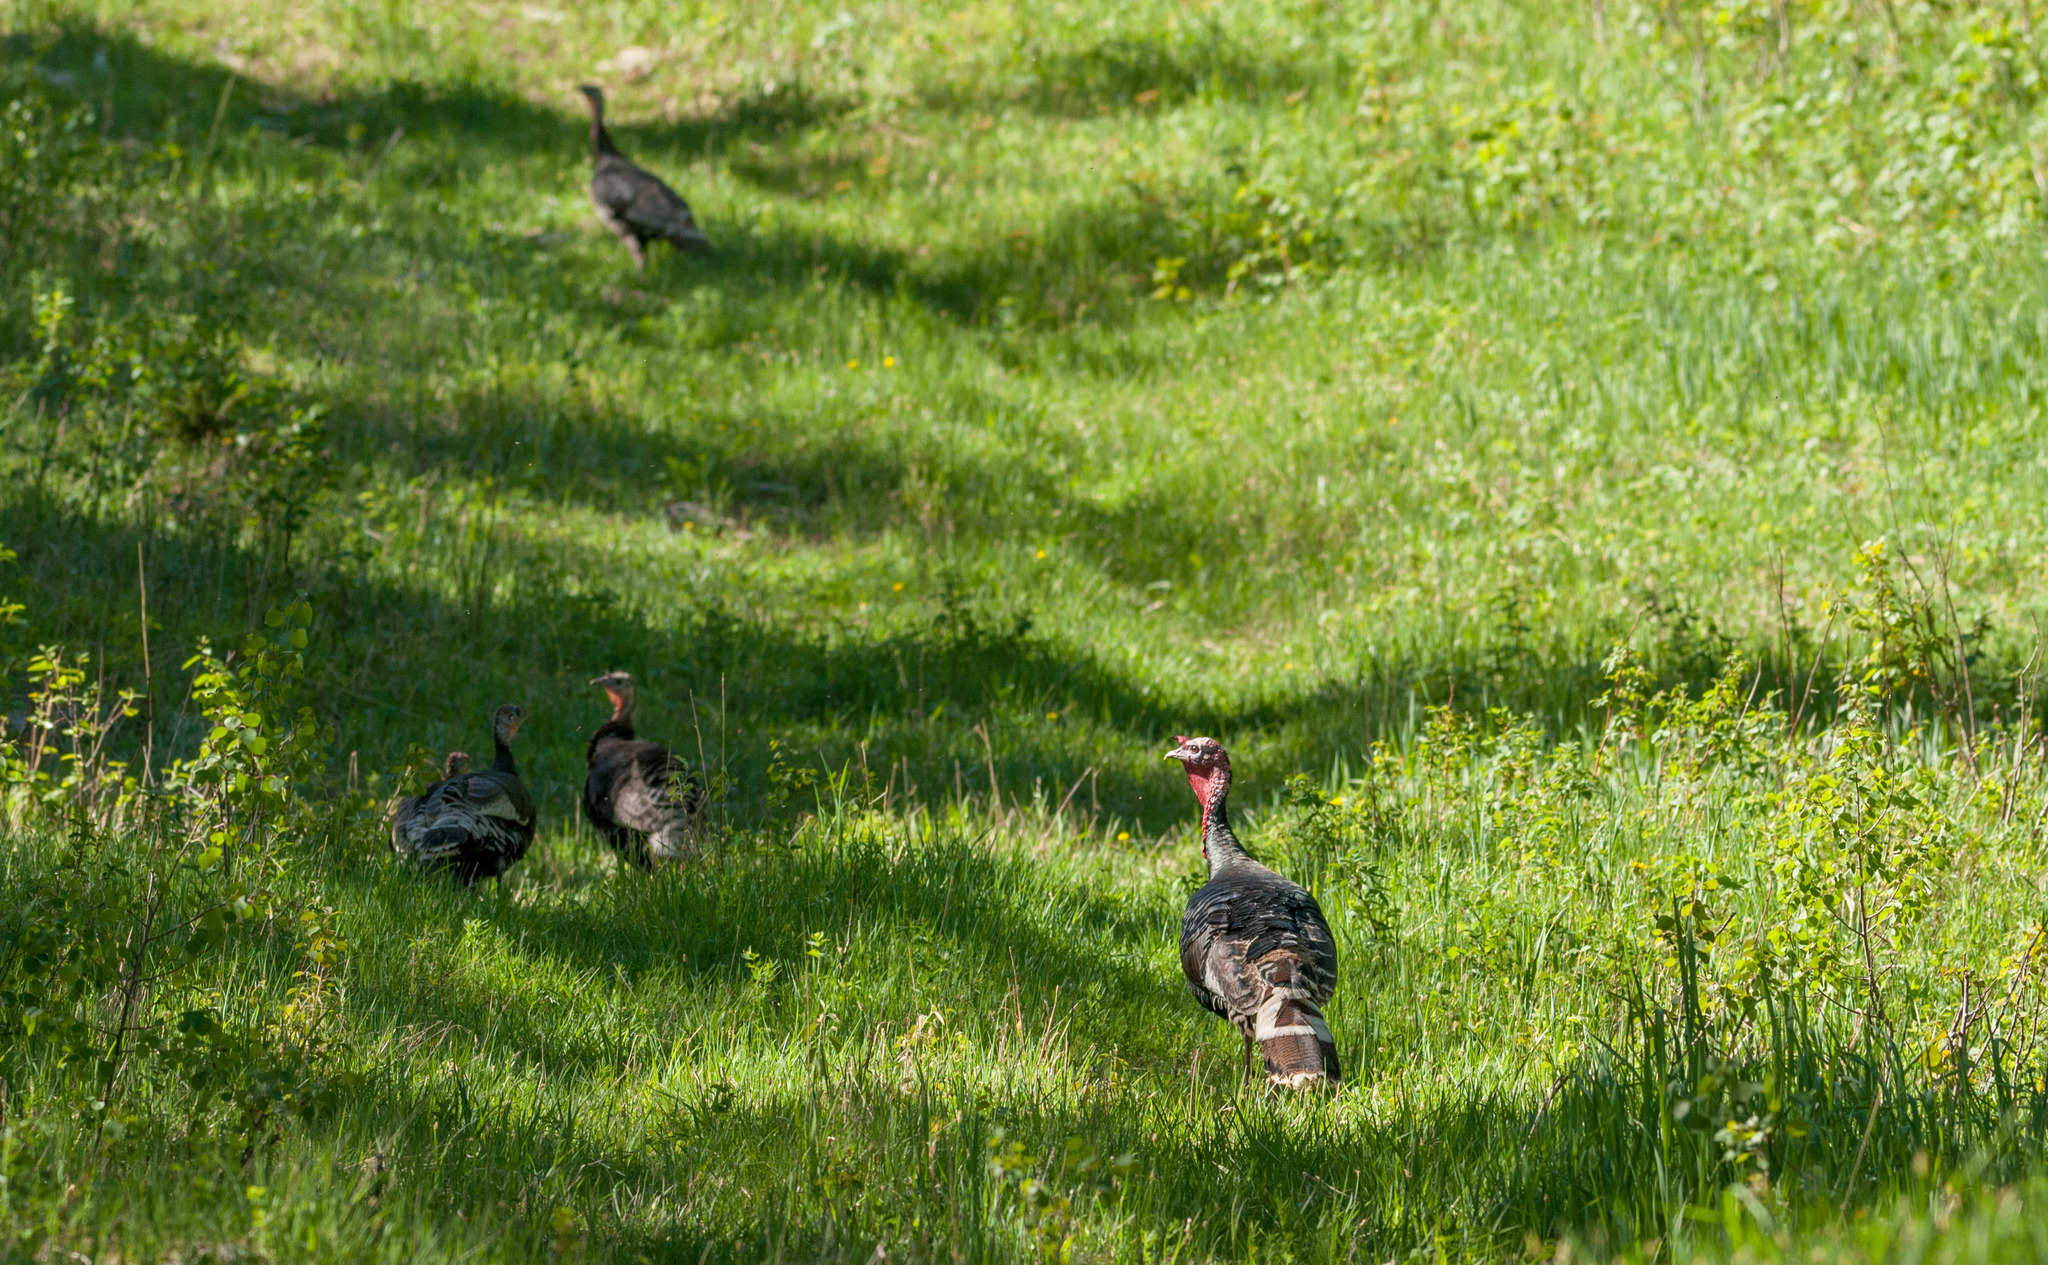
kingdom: Animalia
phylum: Chordata
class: Aves
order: Galliformes
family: Phasianidae
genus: Meleagris
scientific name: Meleagris gallopavo
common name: Wild turkey
